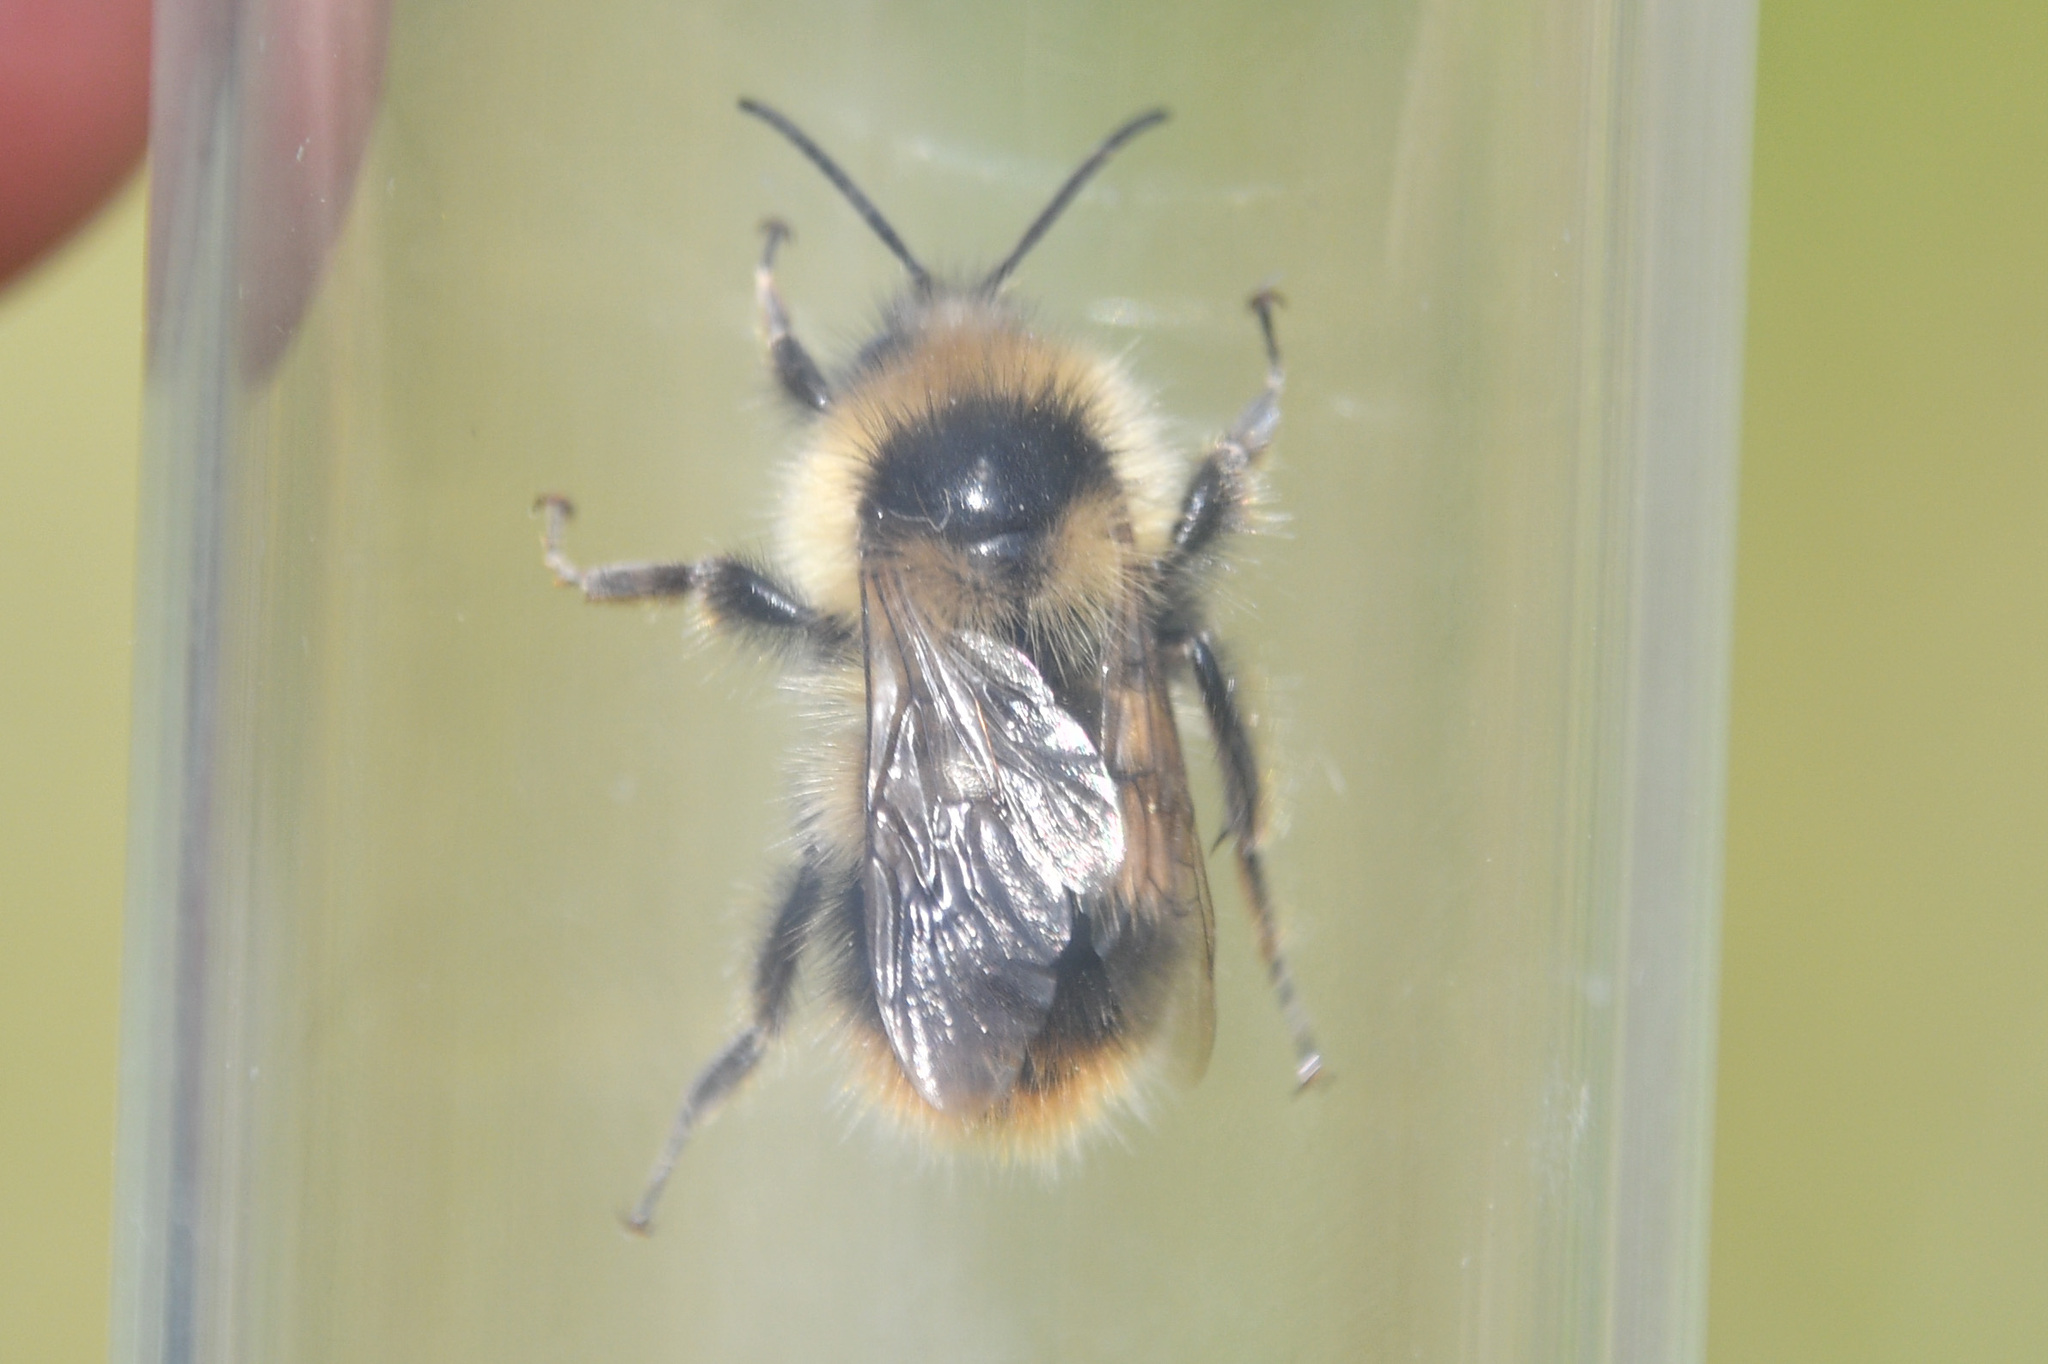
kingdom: Animalia
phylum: Arthropoda
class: Insecta
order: Hymenoptera
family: Apidae
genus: Bombus
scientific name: Bombus frigidus
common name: Frigid bumble bee
